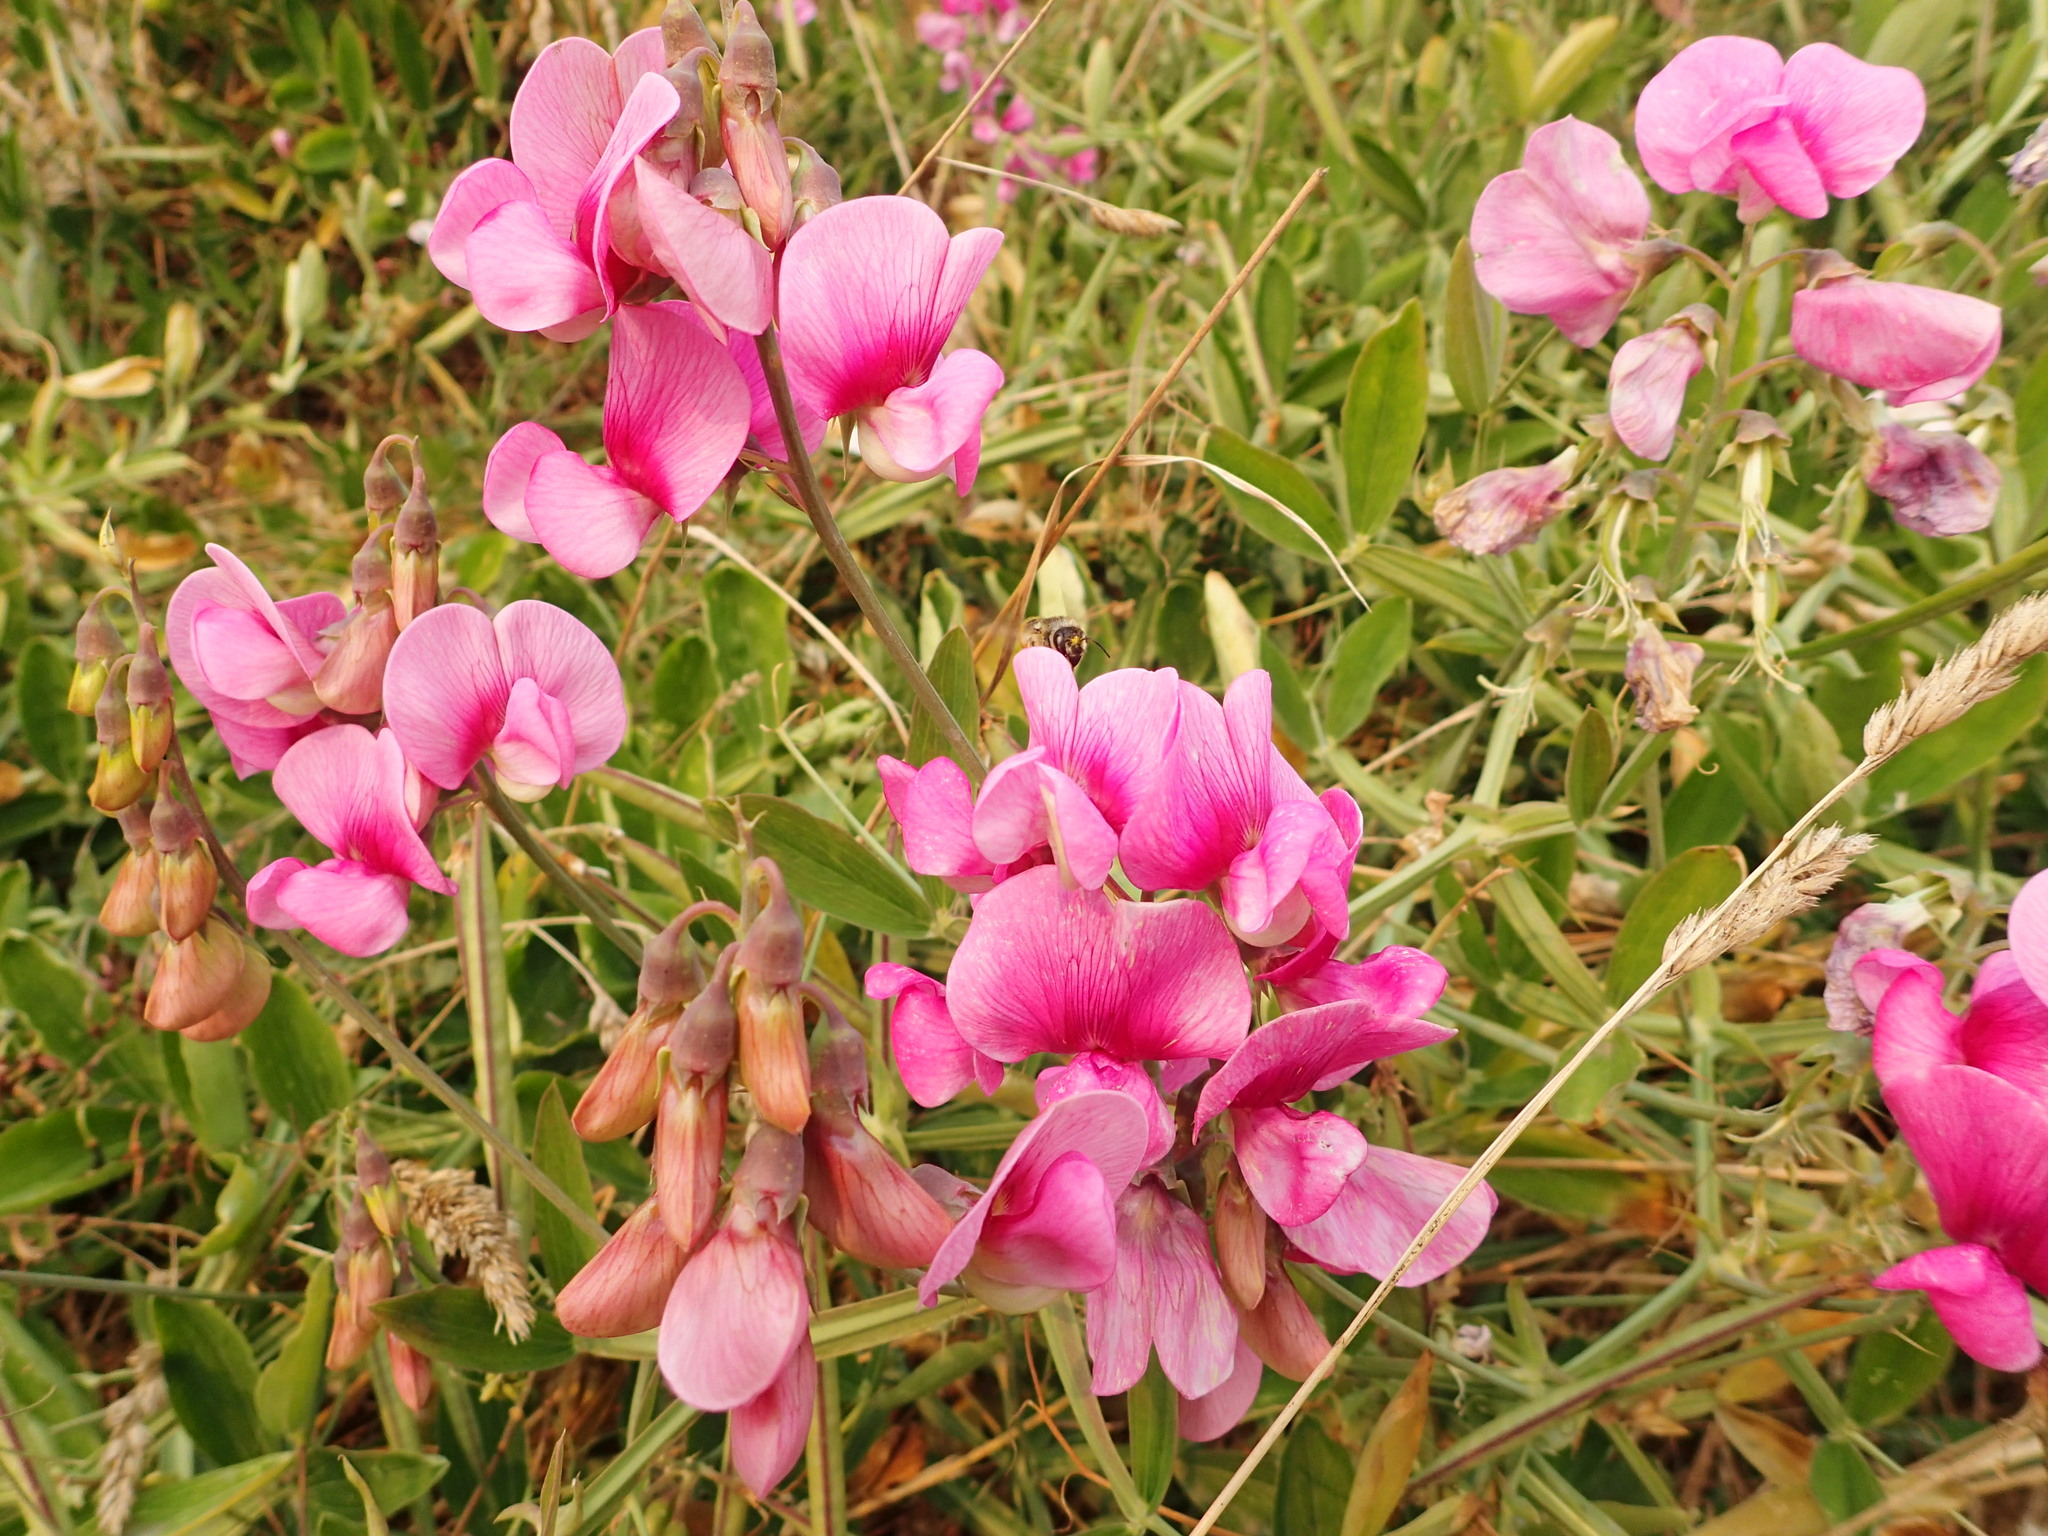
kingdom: Plantae
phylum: Tracheophyta
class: Magnoliopsida
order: Fabales
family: Fabaceae
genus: Lathyrus
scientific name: Lathyrus latifolius
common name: Perennial pea
